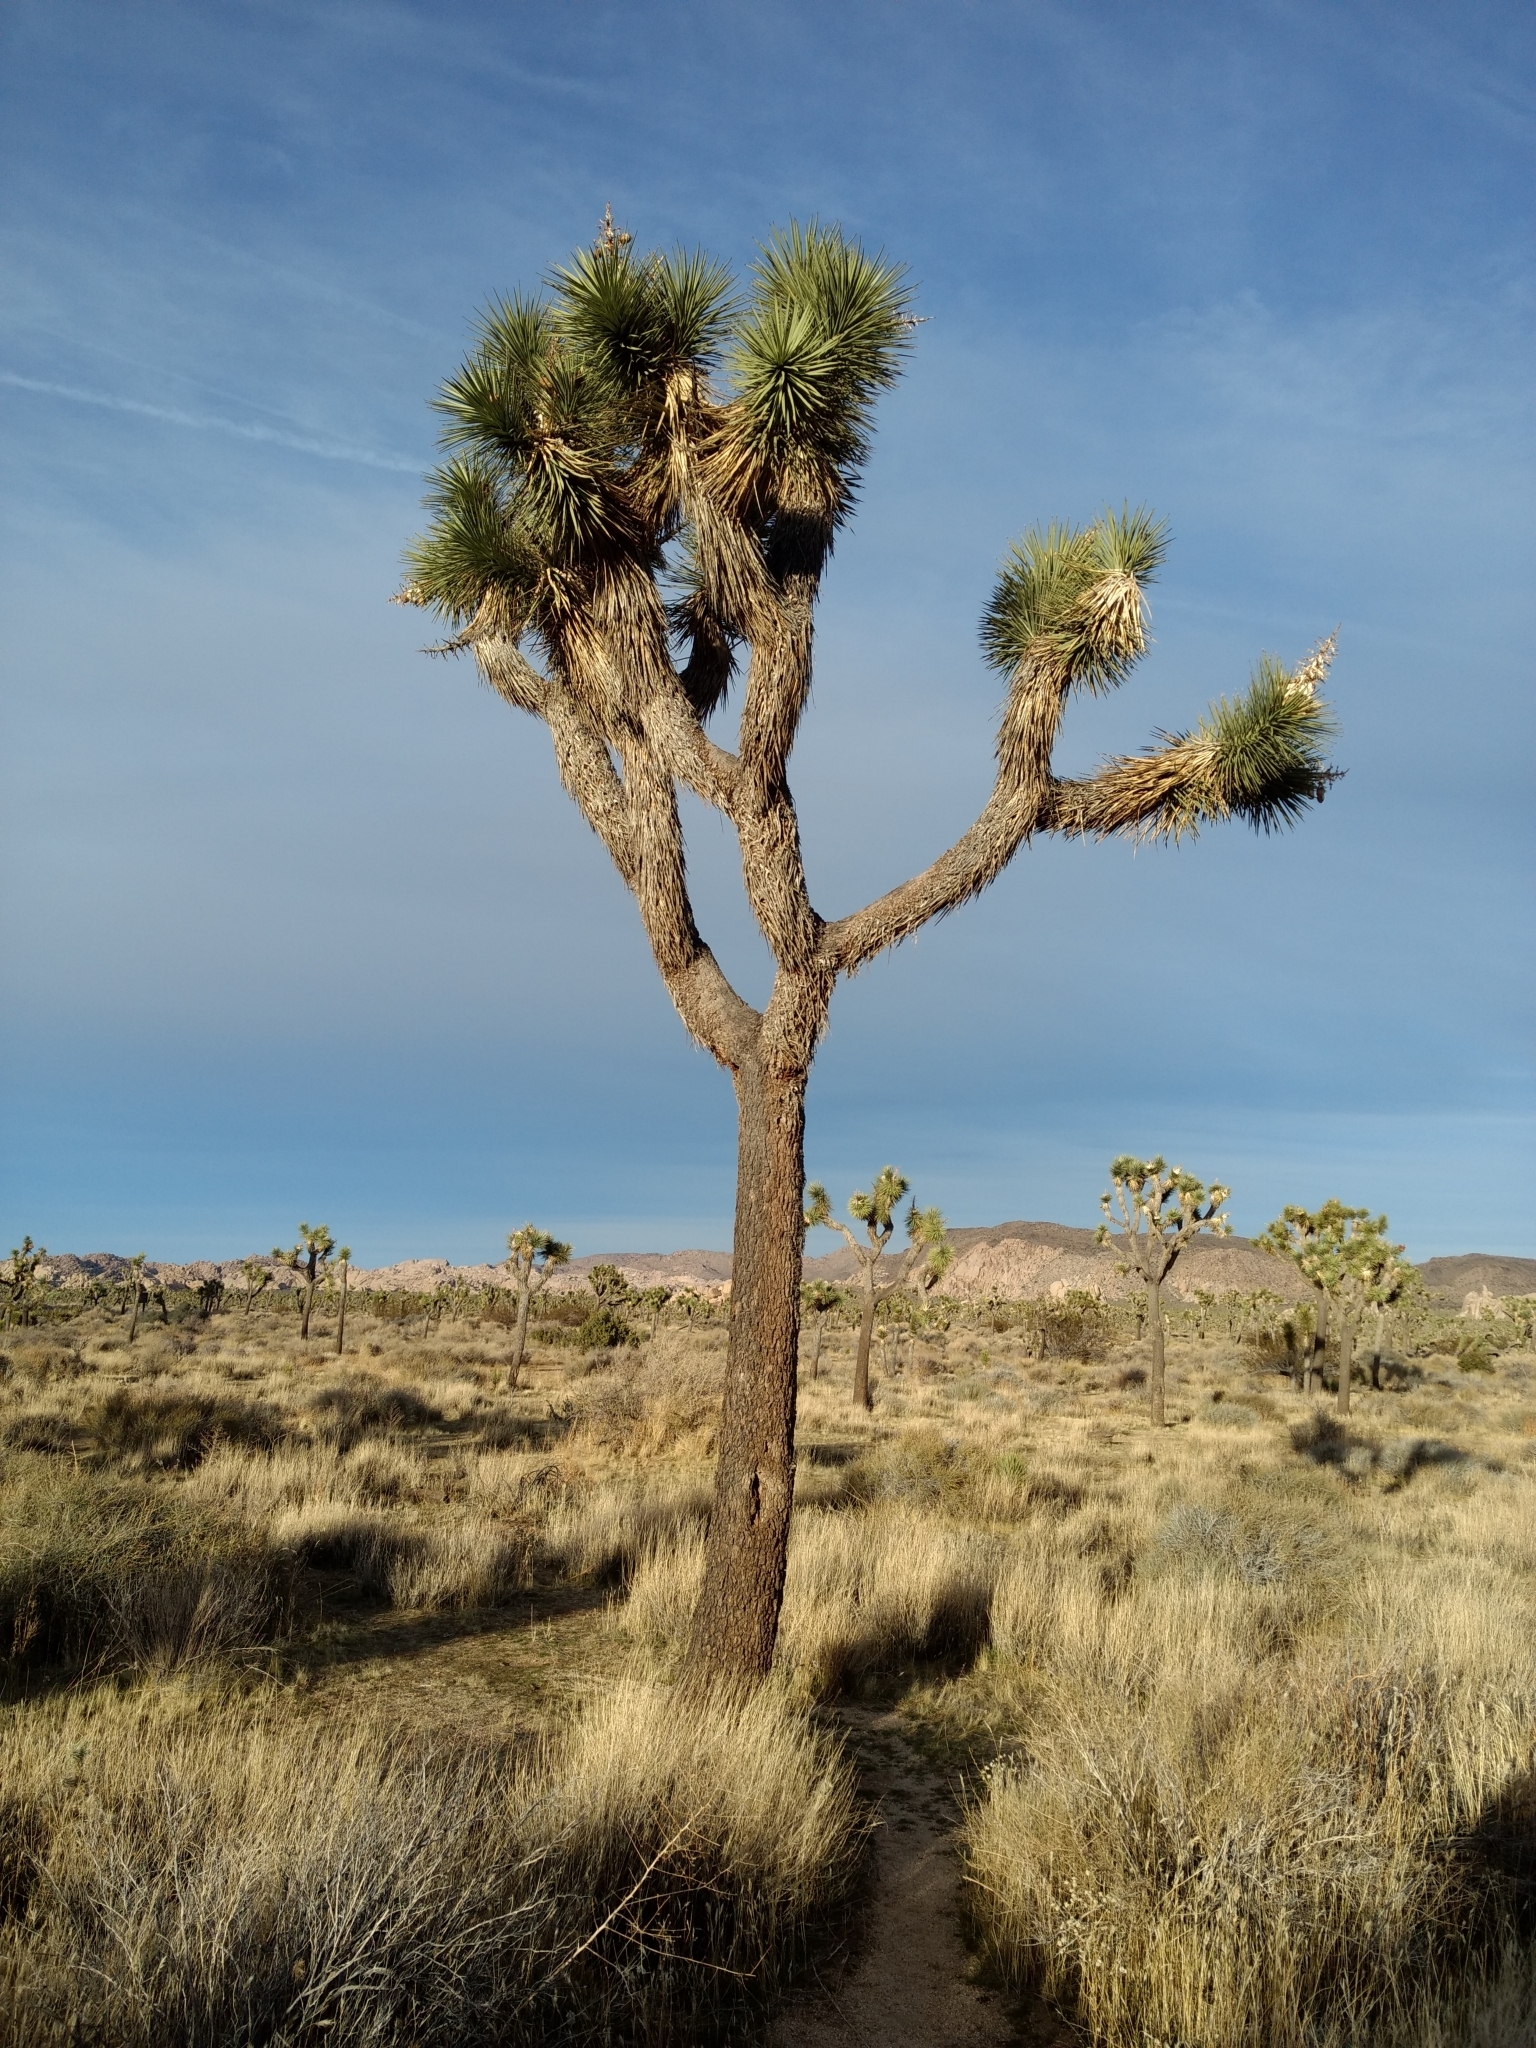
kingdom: Plantae
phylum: Tracheophyta
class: Liliopsida
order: Asparagales
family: Asparagaceae
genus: Yucca
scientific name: Yucca brevifolia
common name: Joshua tree
